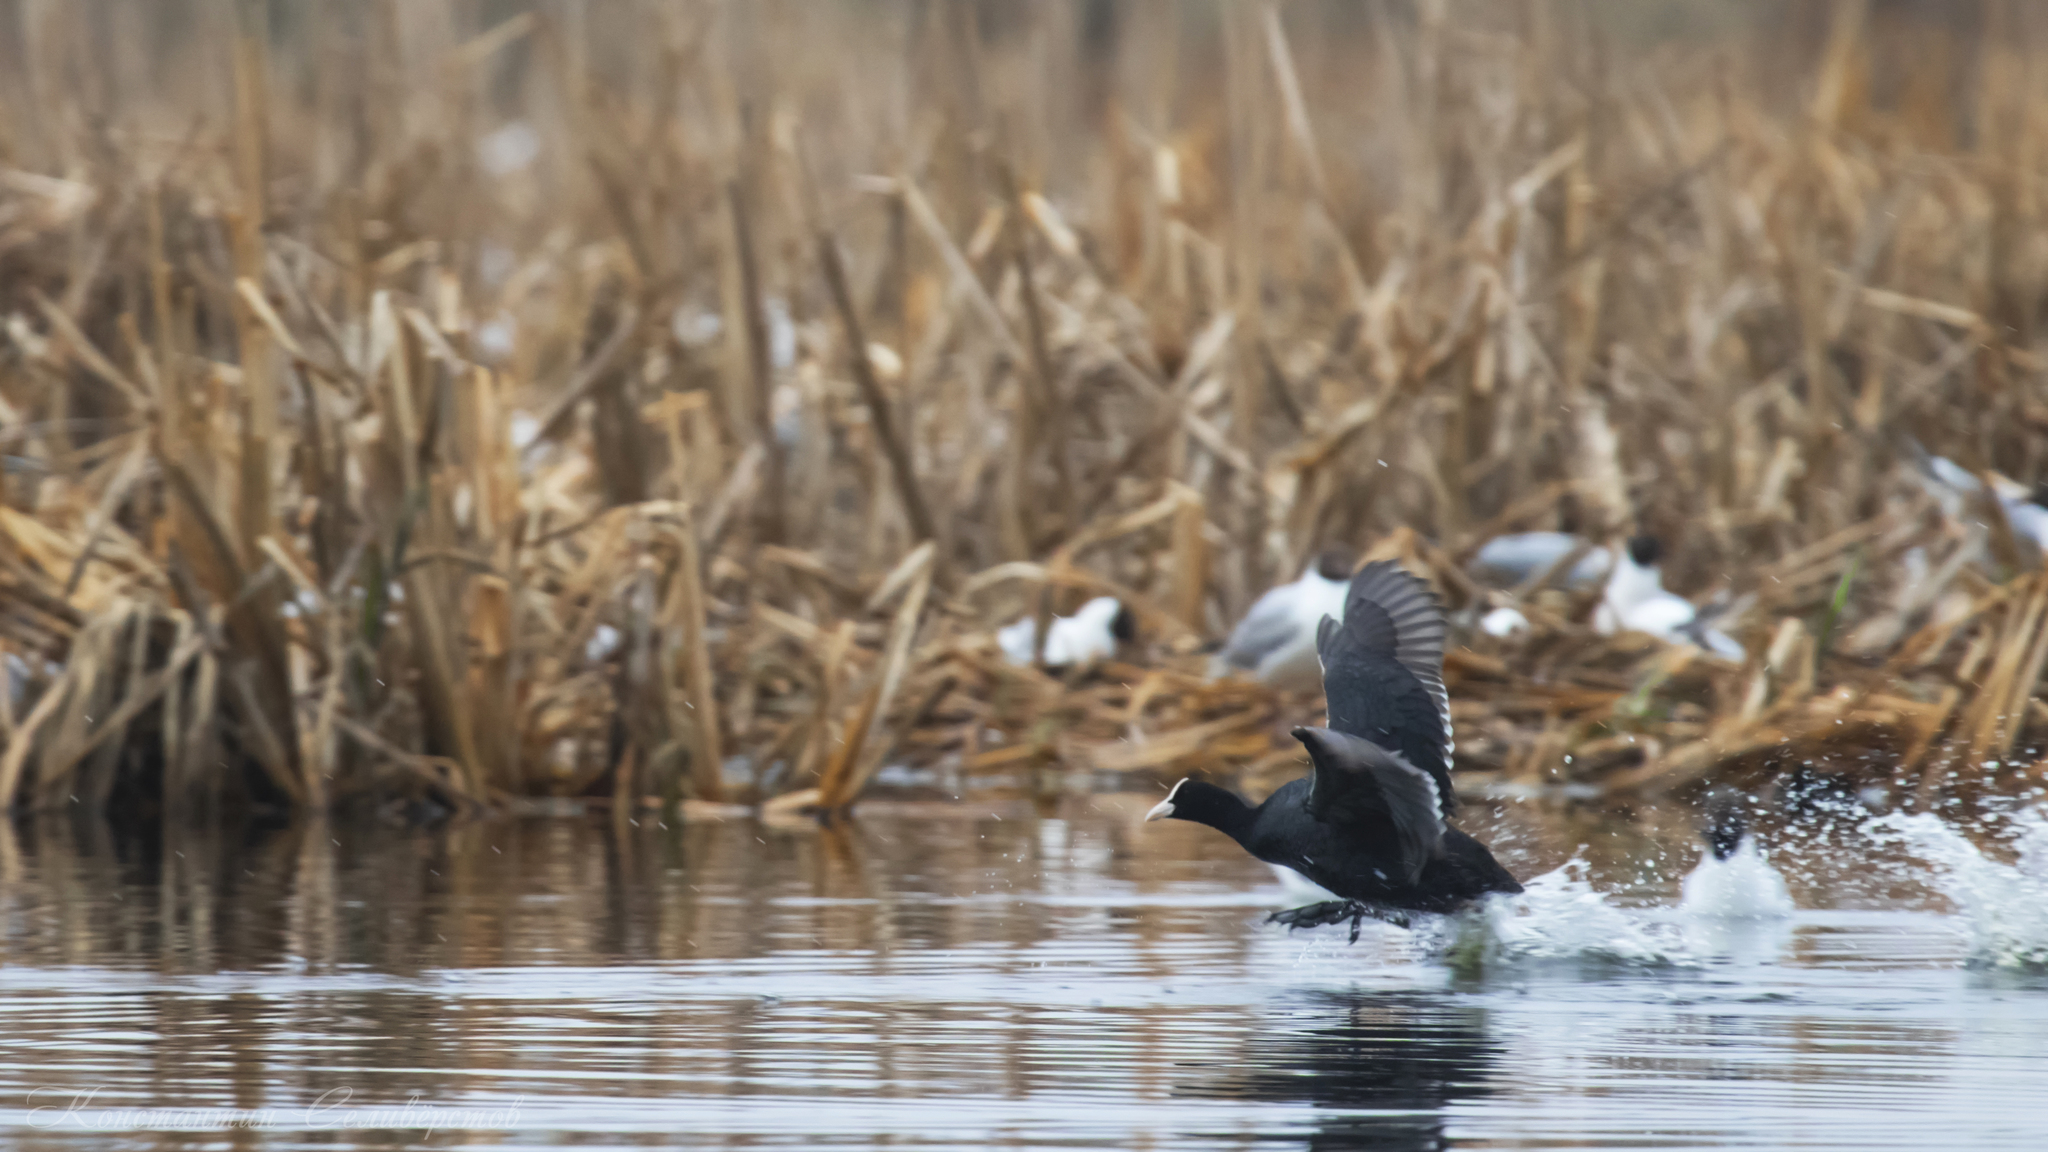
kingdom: Animalia
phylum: Chordata
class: Aves
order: Gruiformes
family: Rallidae
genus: Fulica
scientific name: Fulica atra
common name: Eurasian coot
